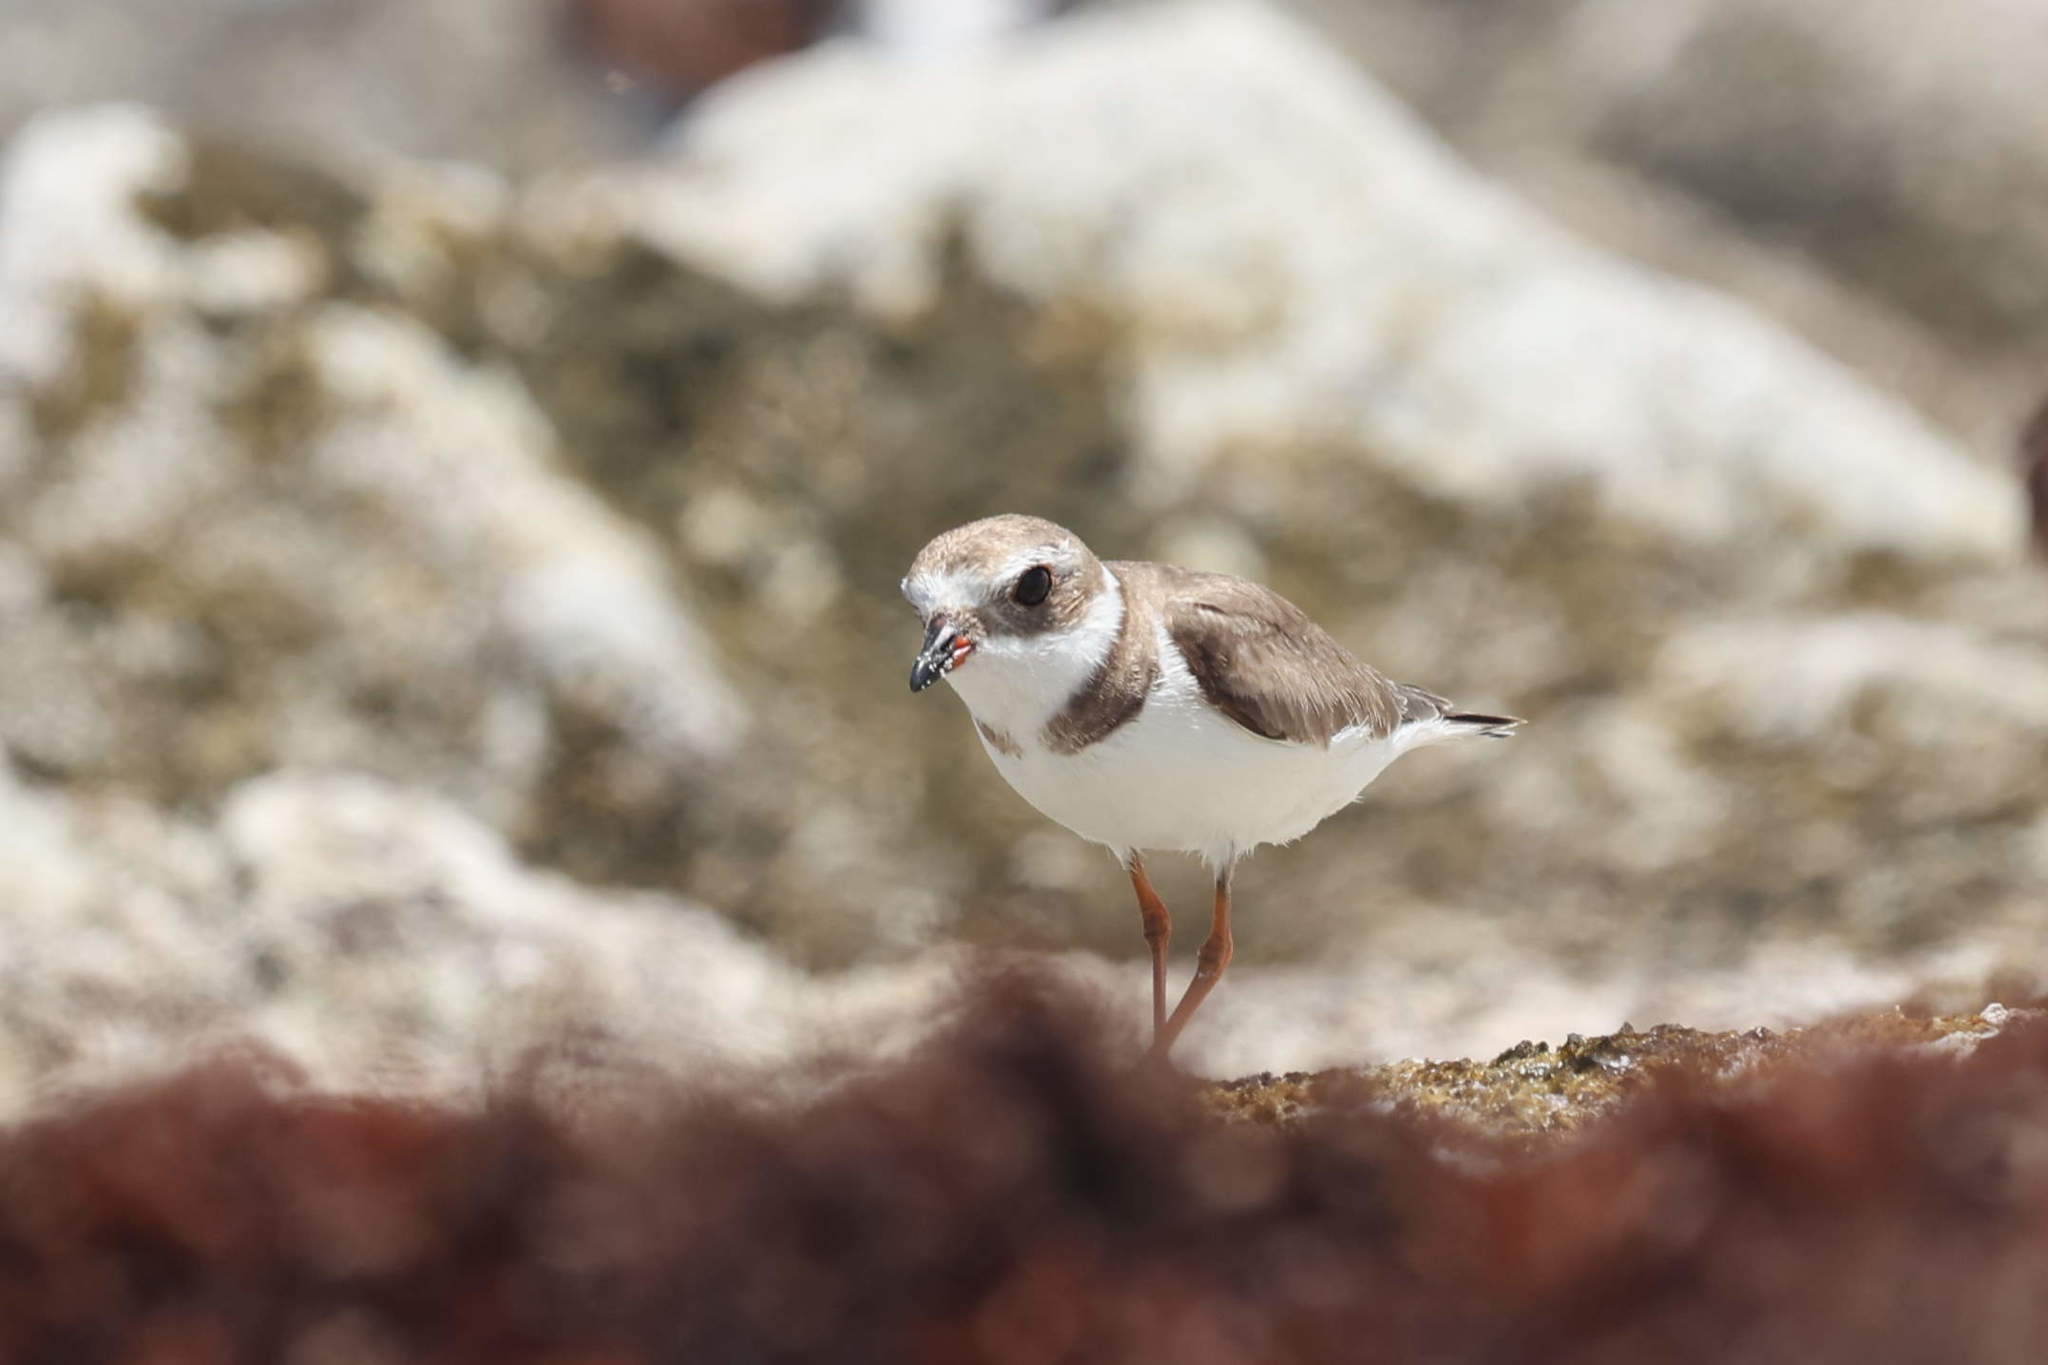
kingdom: Animalia
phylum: Chordata
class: Aves
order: Charadriiformes
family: Charadriidae
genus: Charadrius
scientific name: Charadrius semipalmatus
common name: Semipalmated plover
